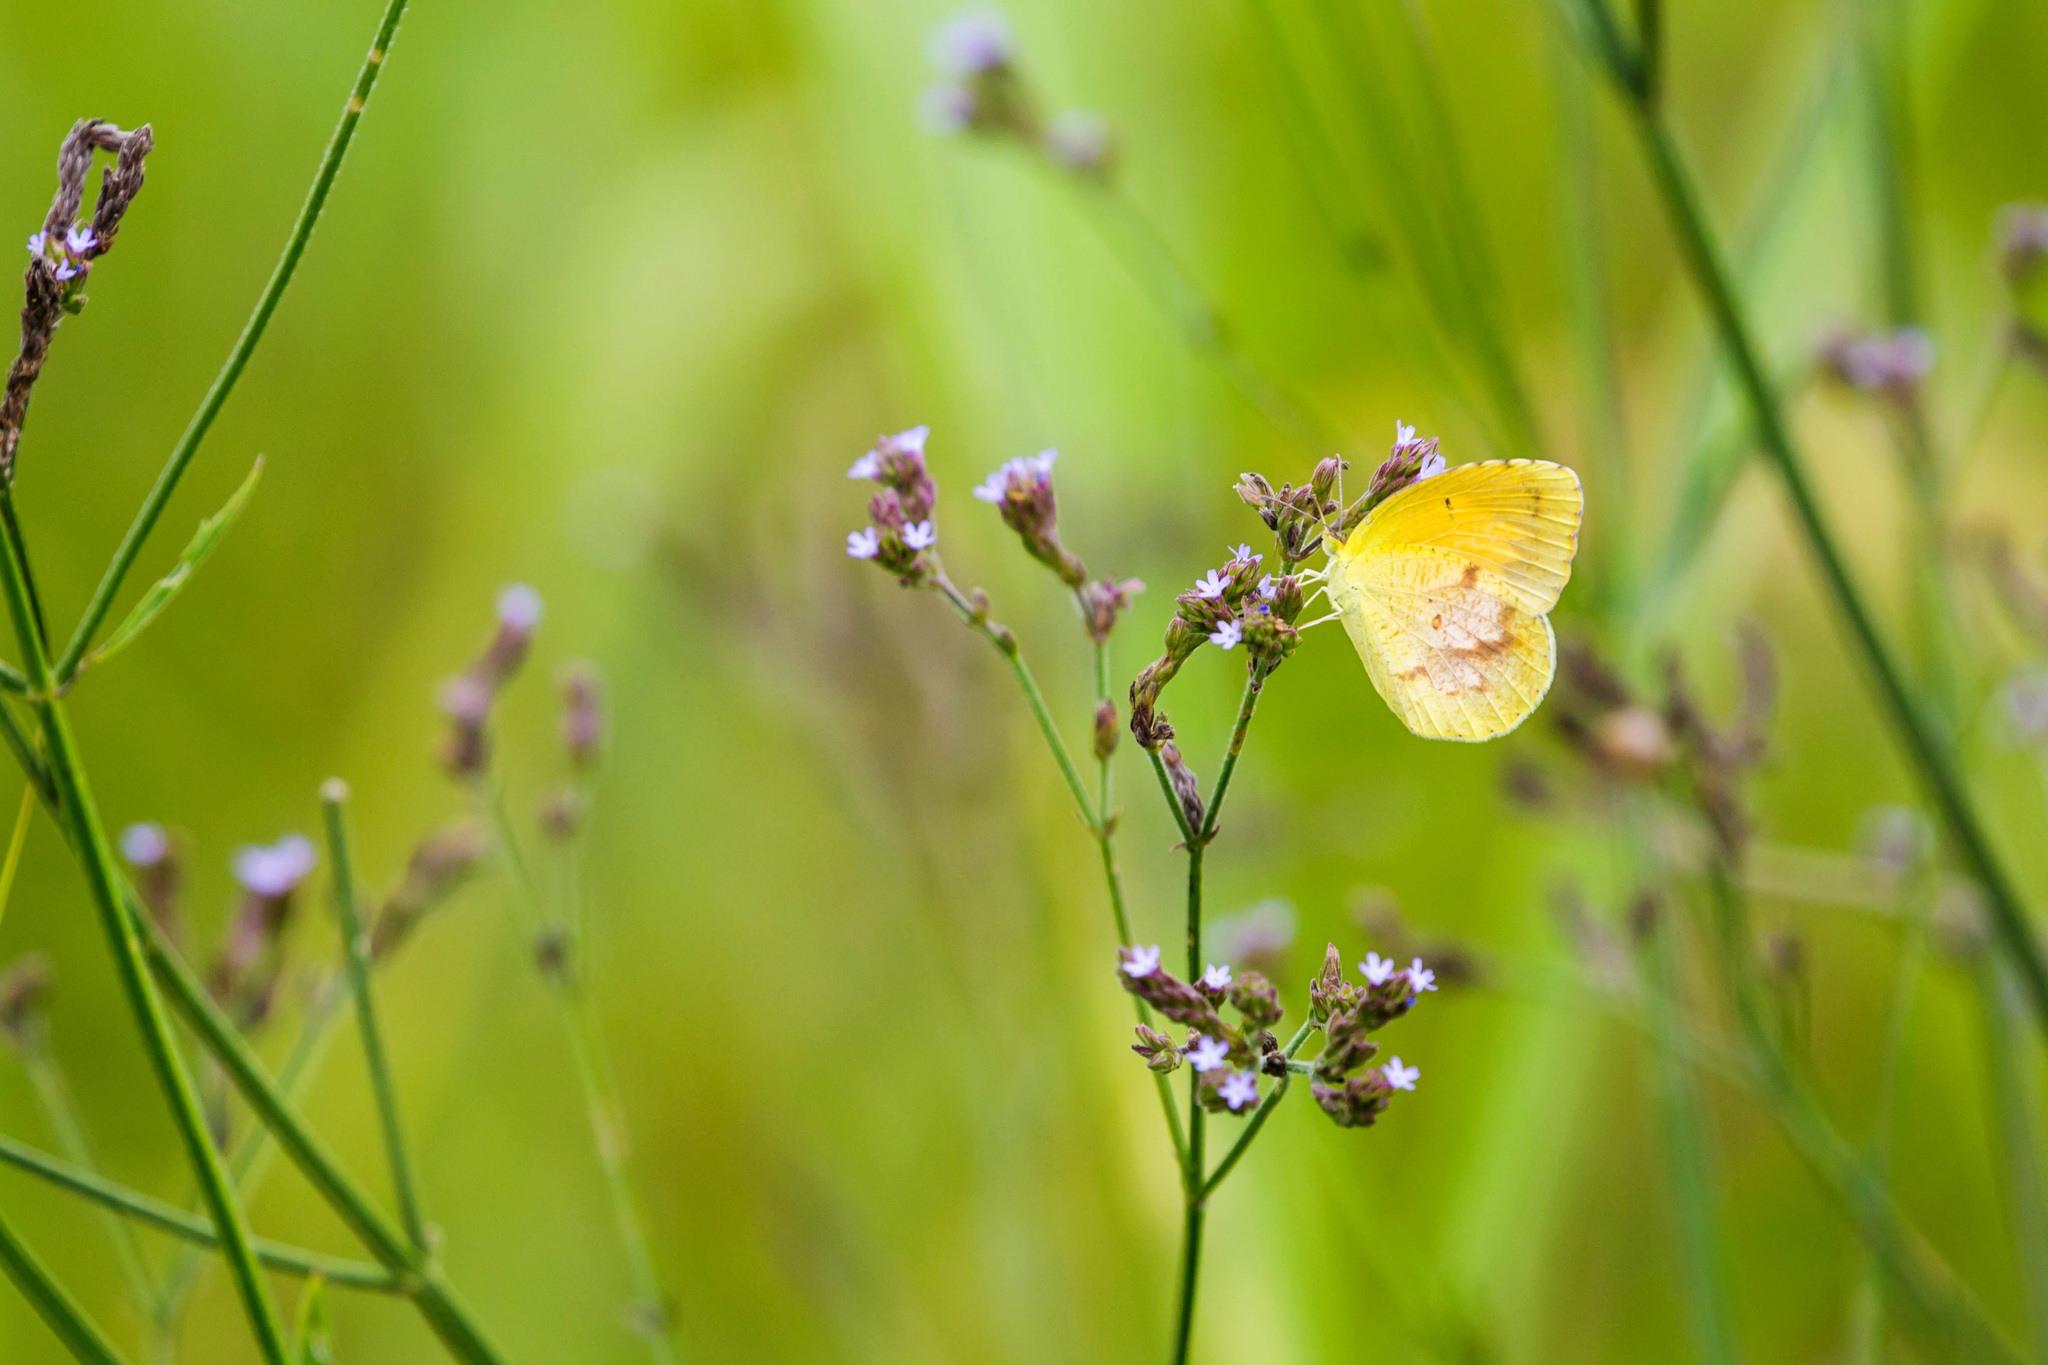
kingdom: Animalia
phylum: Arthropoda
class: Insecta
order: Lepidoptera
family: Pieridae
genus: Abaeis
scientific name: Abaeis nicippe
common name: Sleepy orange
